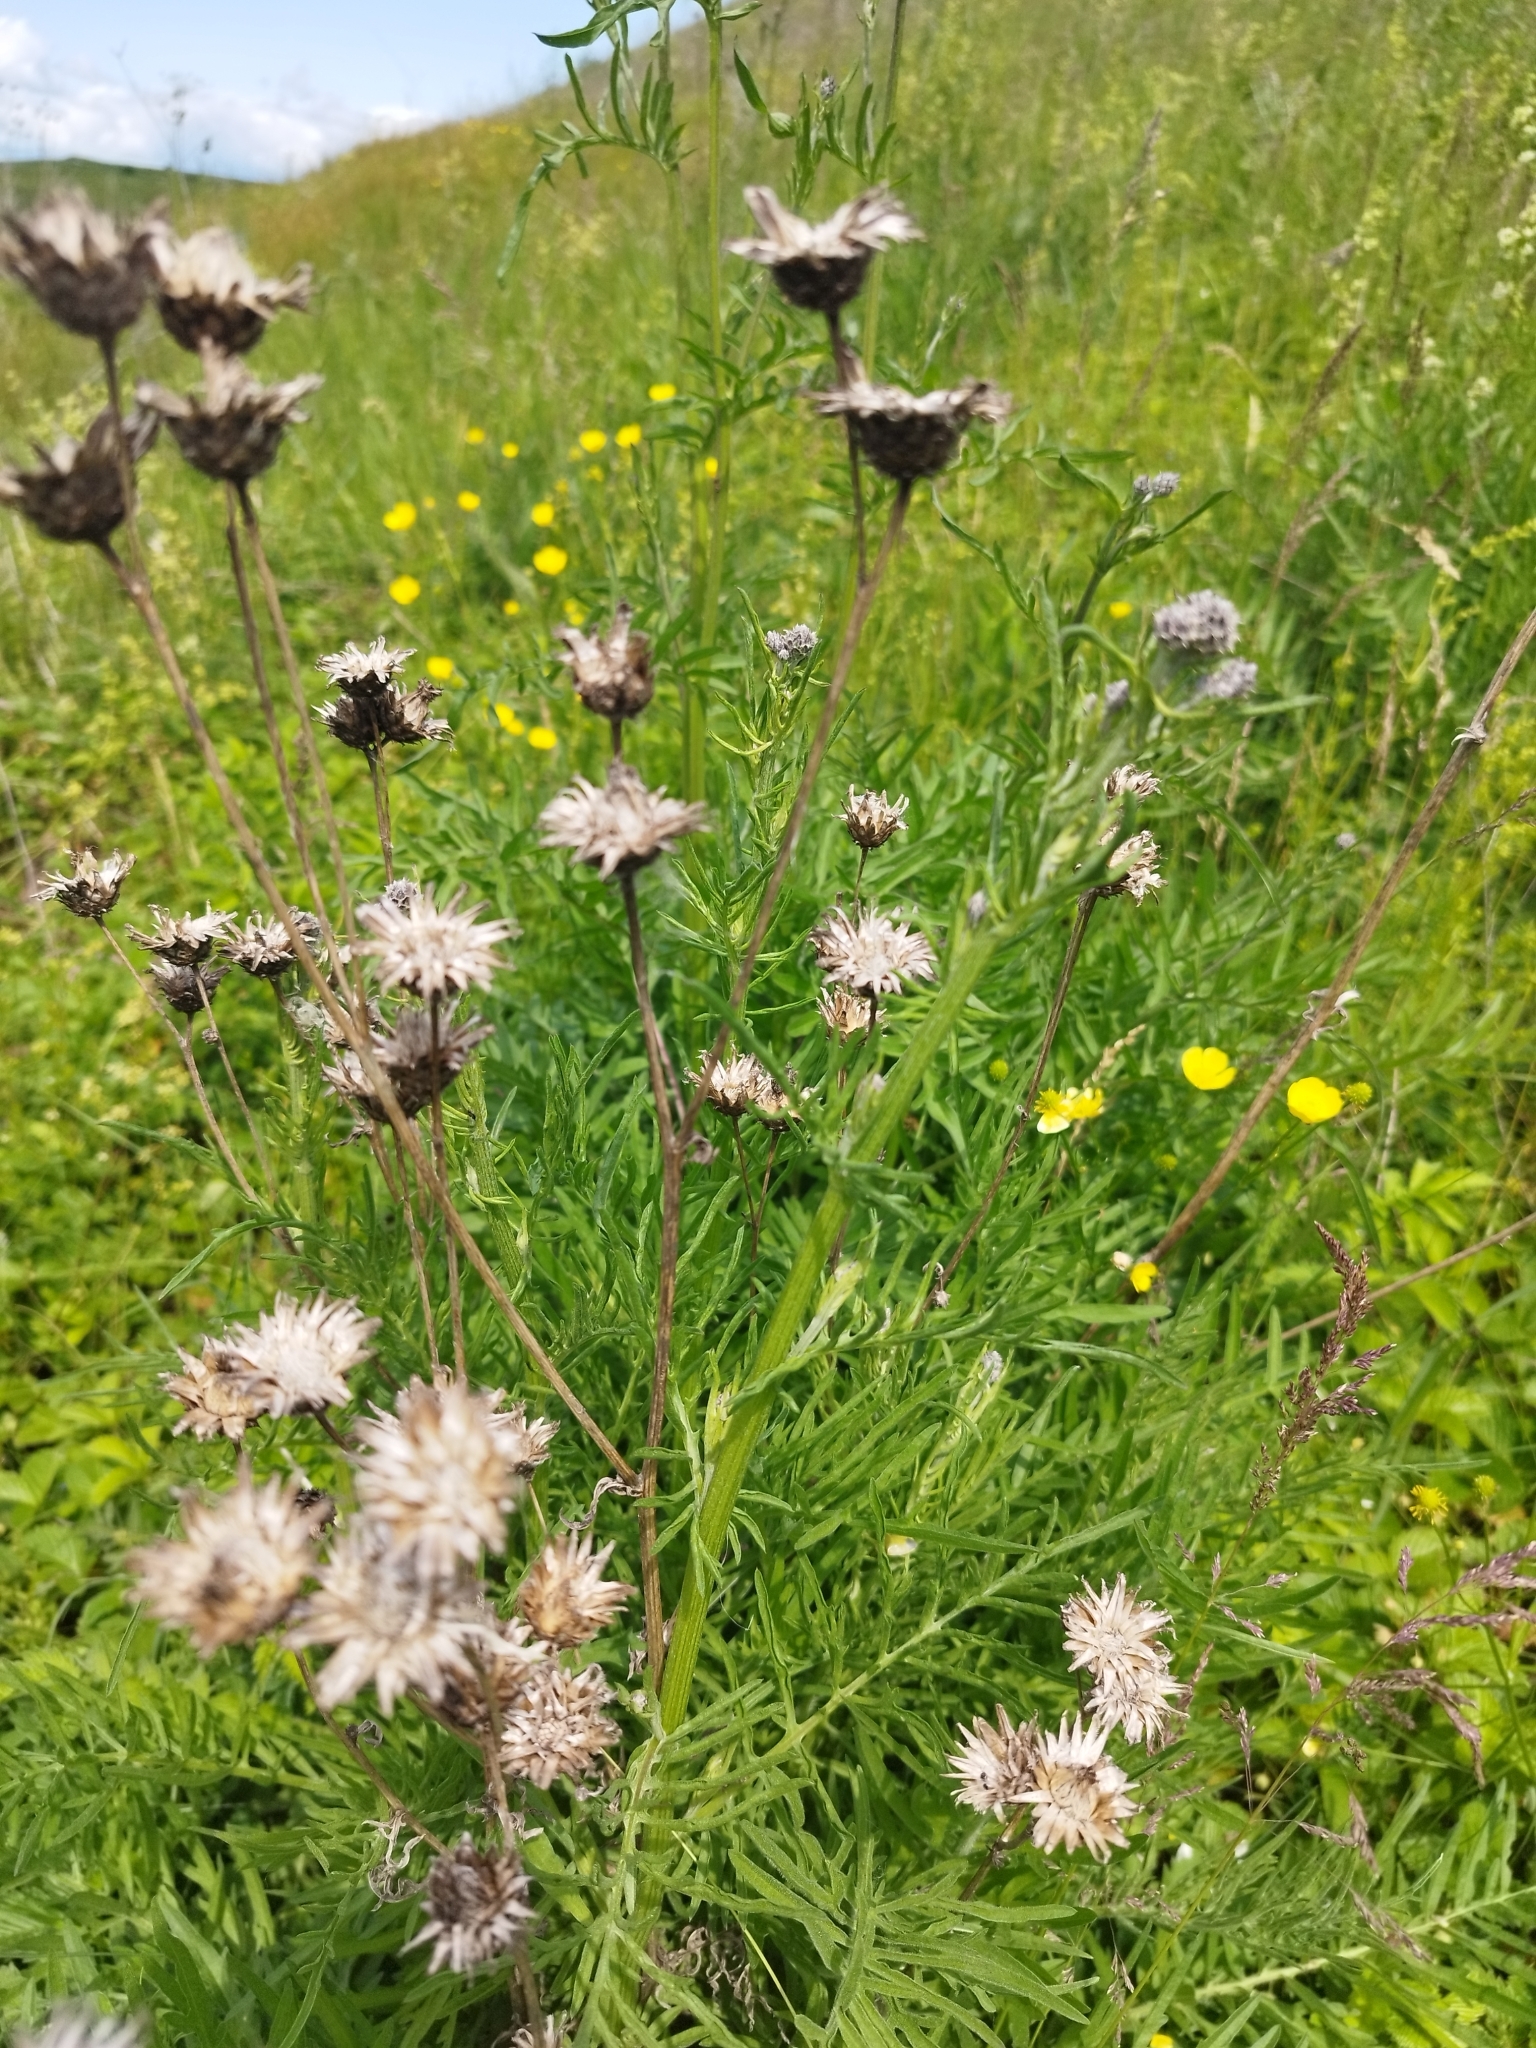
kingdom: Plantae
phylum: Tracheophyta
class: Magnoliopsida
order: Asterales
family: Asteraceae
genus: Centaurea
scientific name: Centaurea scabiosa
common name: Greater knapweed
